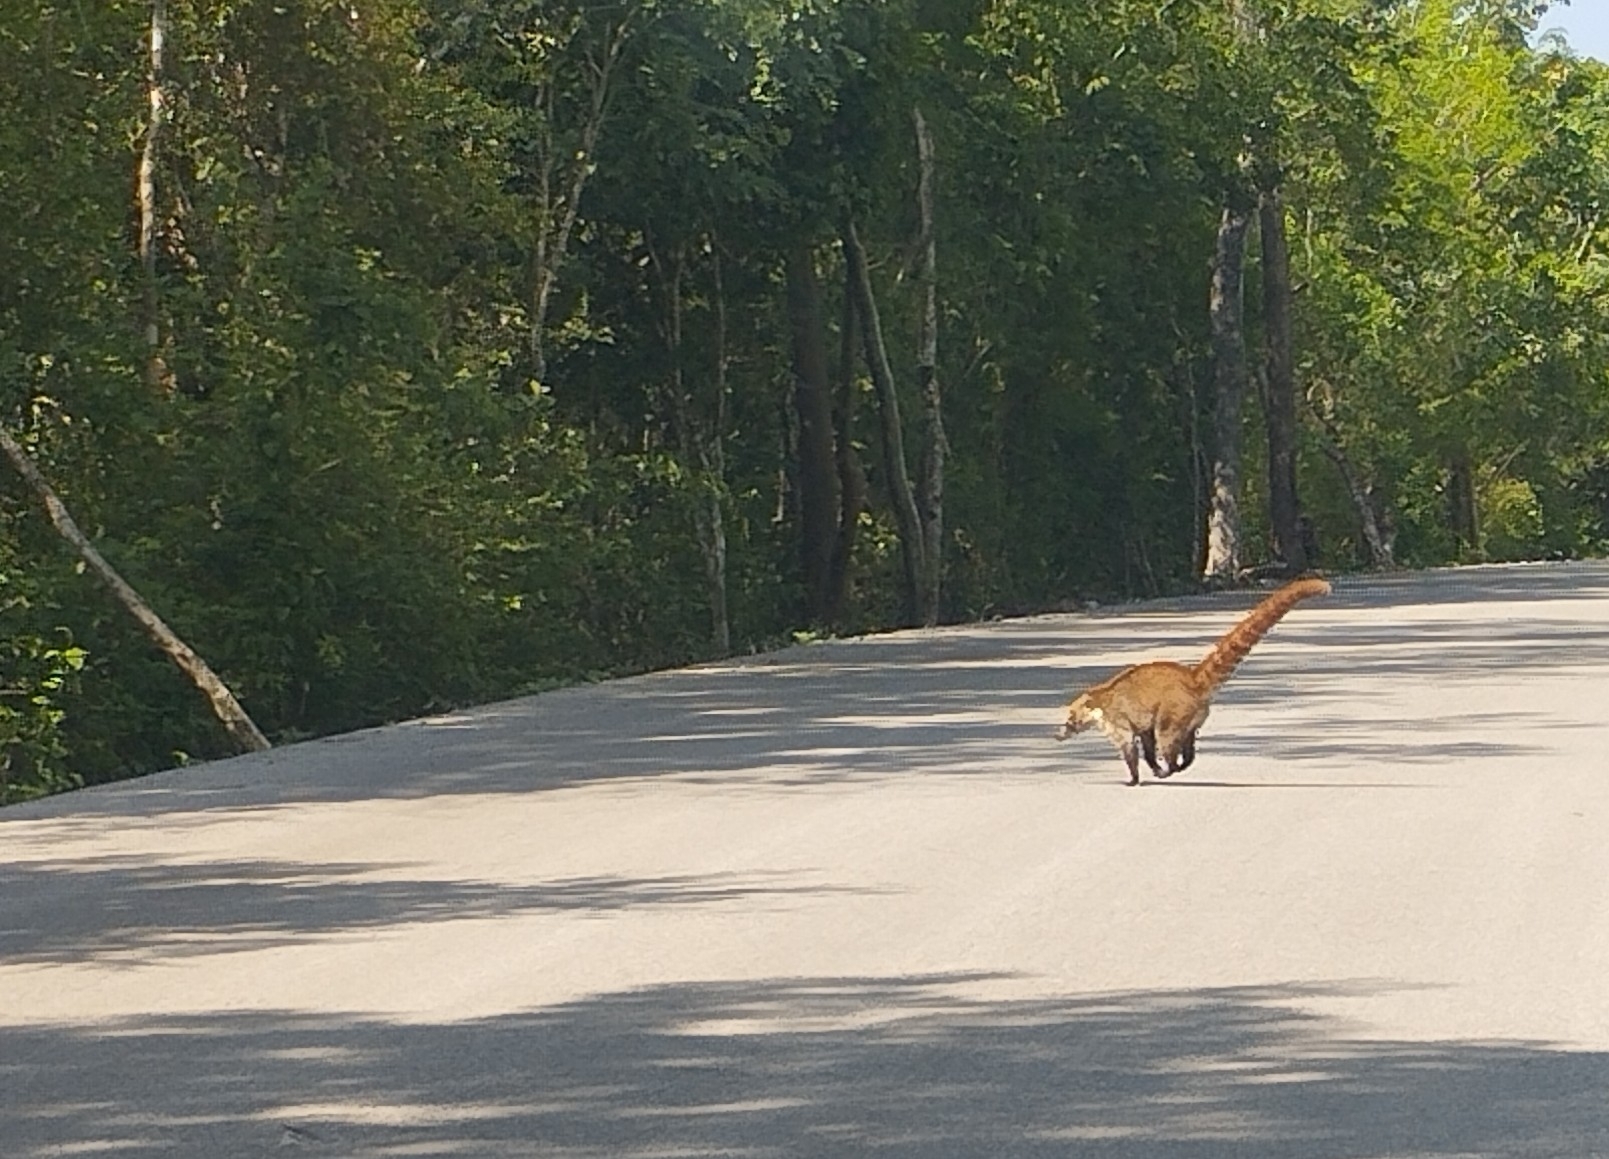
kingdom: Animalia
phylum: Chordata
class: Mammalia
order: Carnivora
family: Procyonidae
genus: Nasua
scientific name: Nasua narica
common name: White-nosed coati
